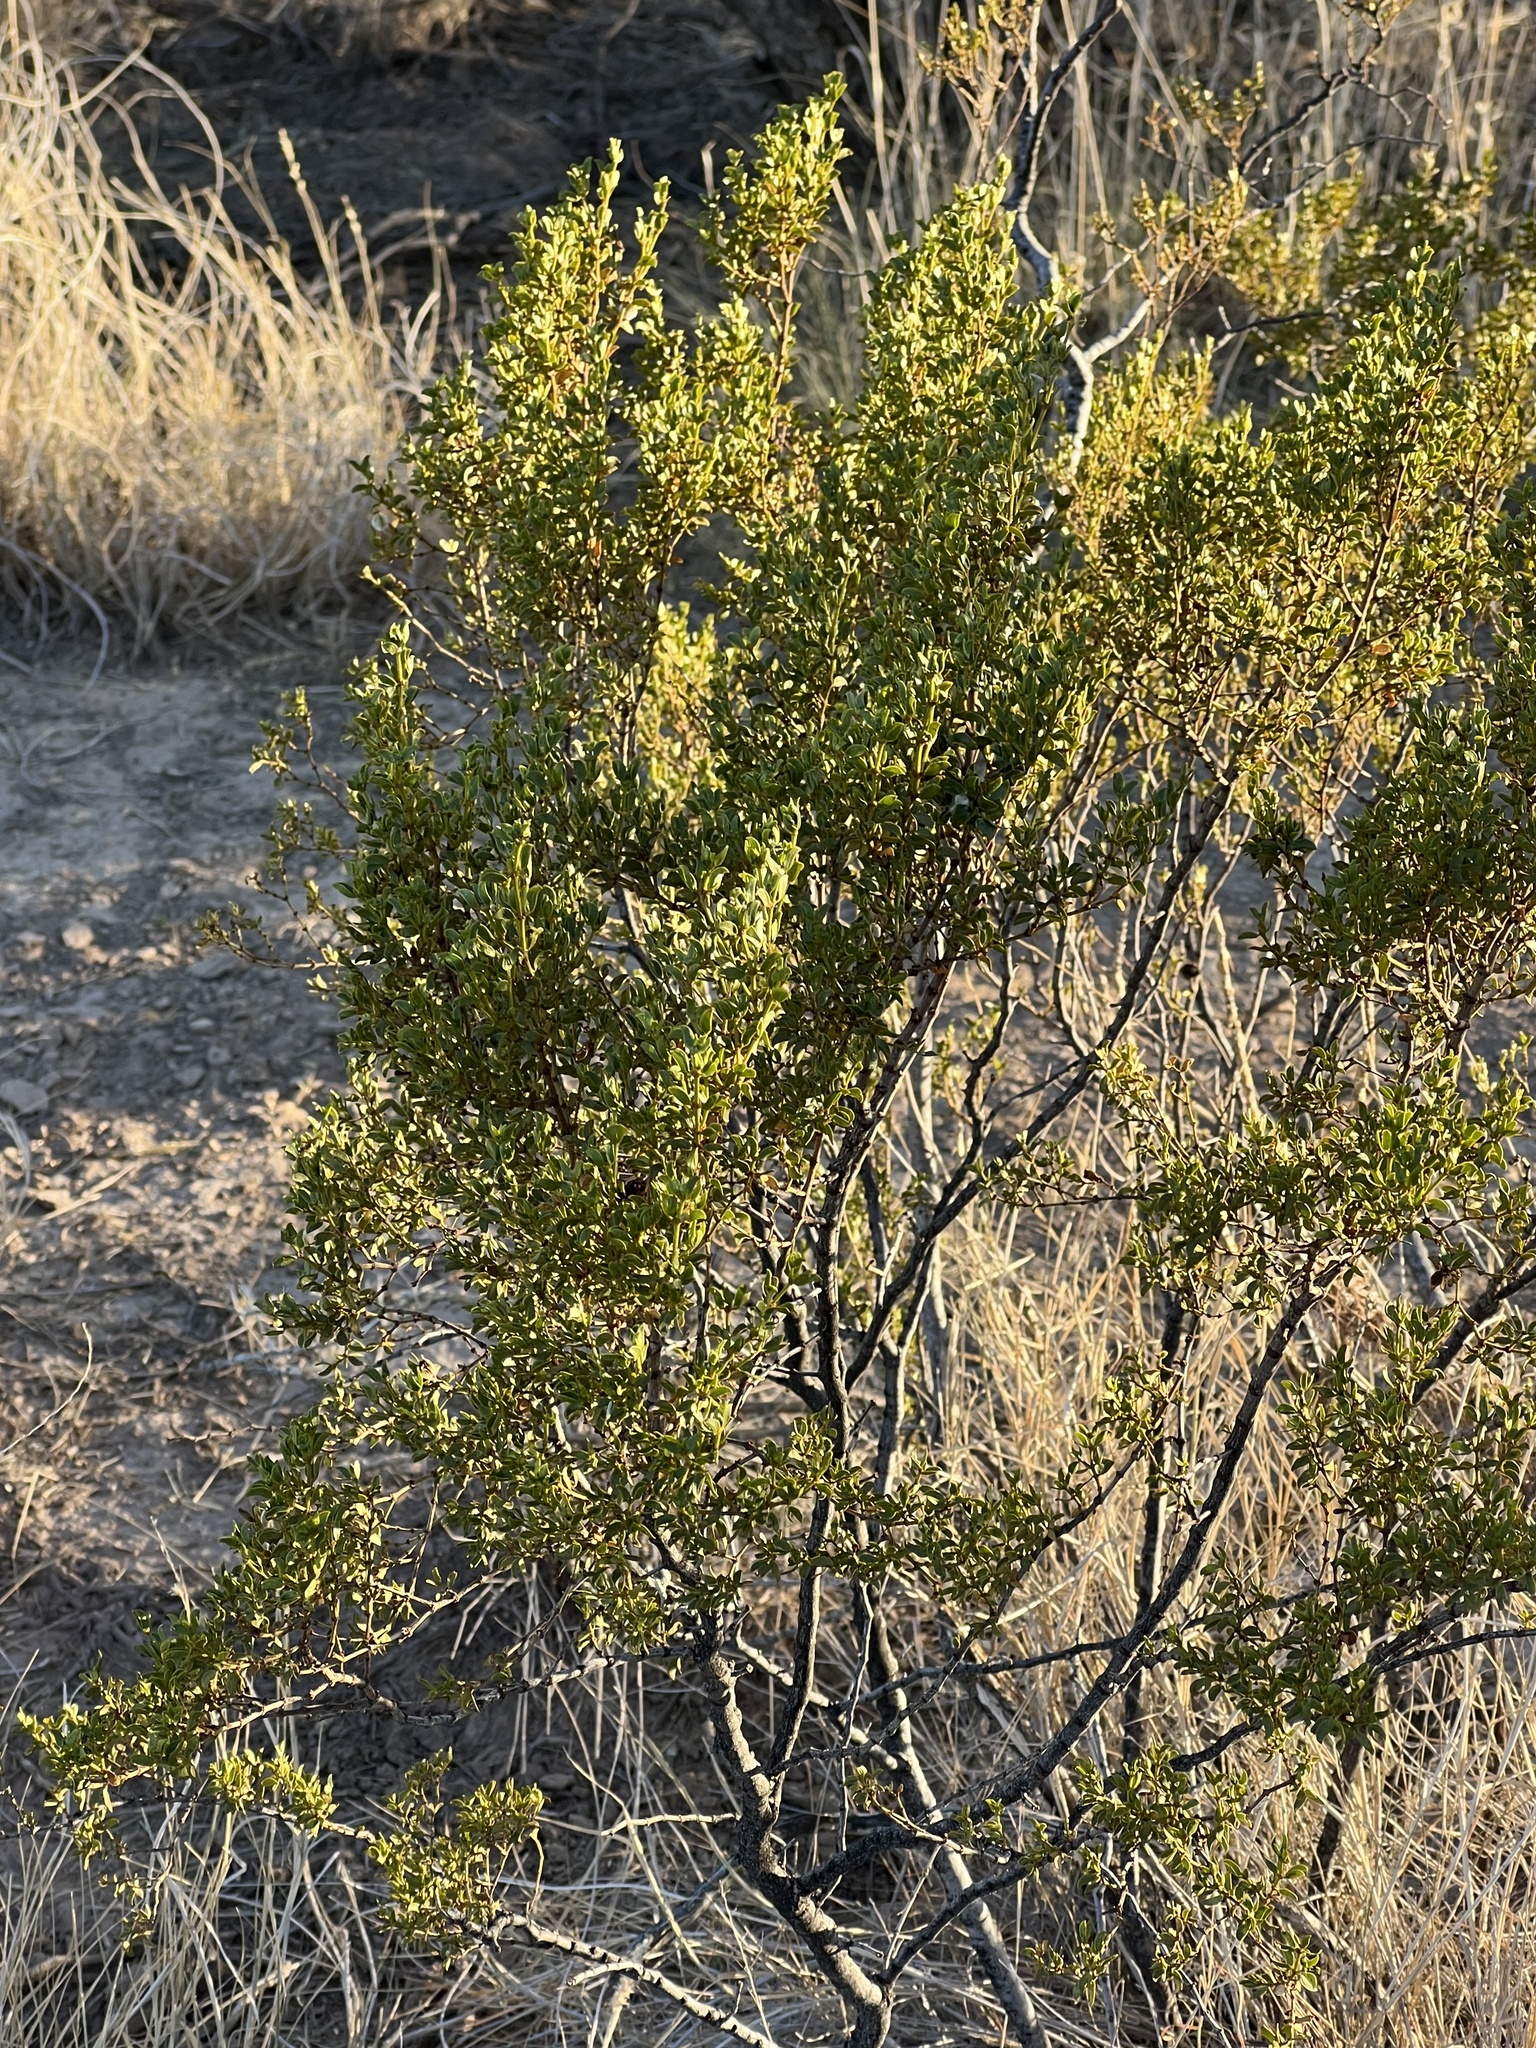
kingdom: Plantae
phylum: Tracheophyta
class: Magnoliopsida
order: Zygophyllales
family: Zygophyllaceae
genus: Larrea
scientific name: Larrea tridentata
